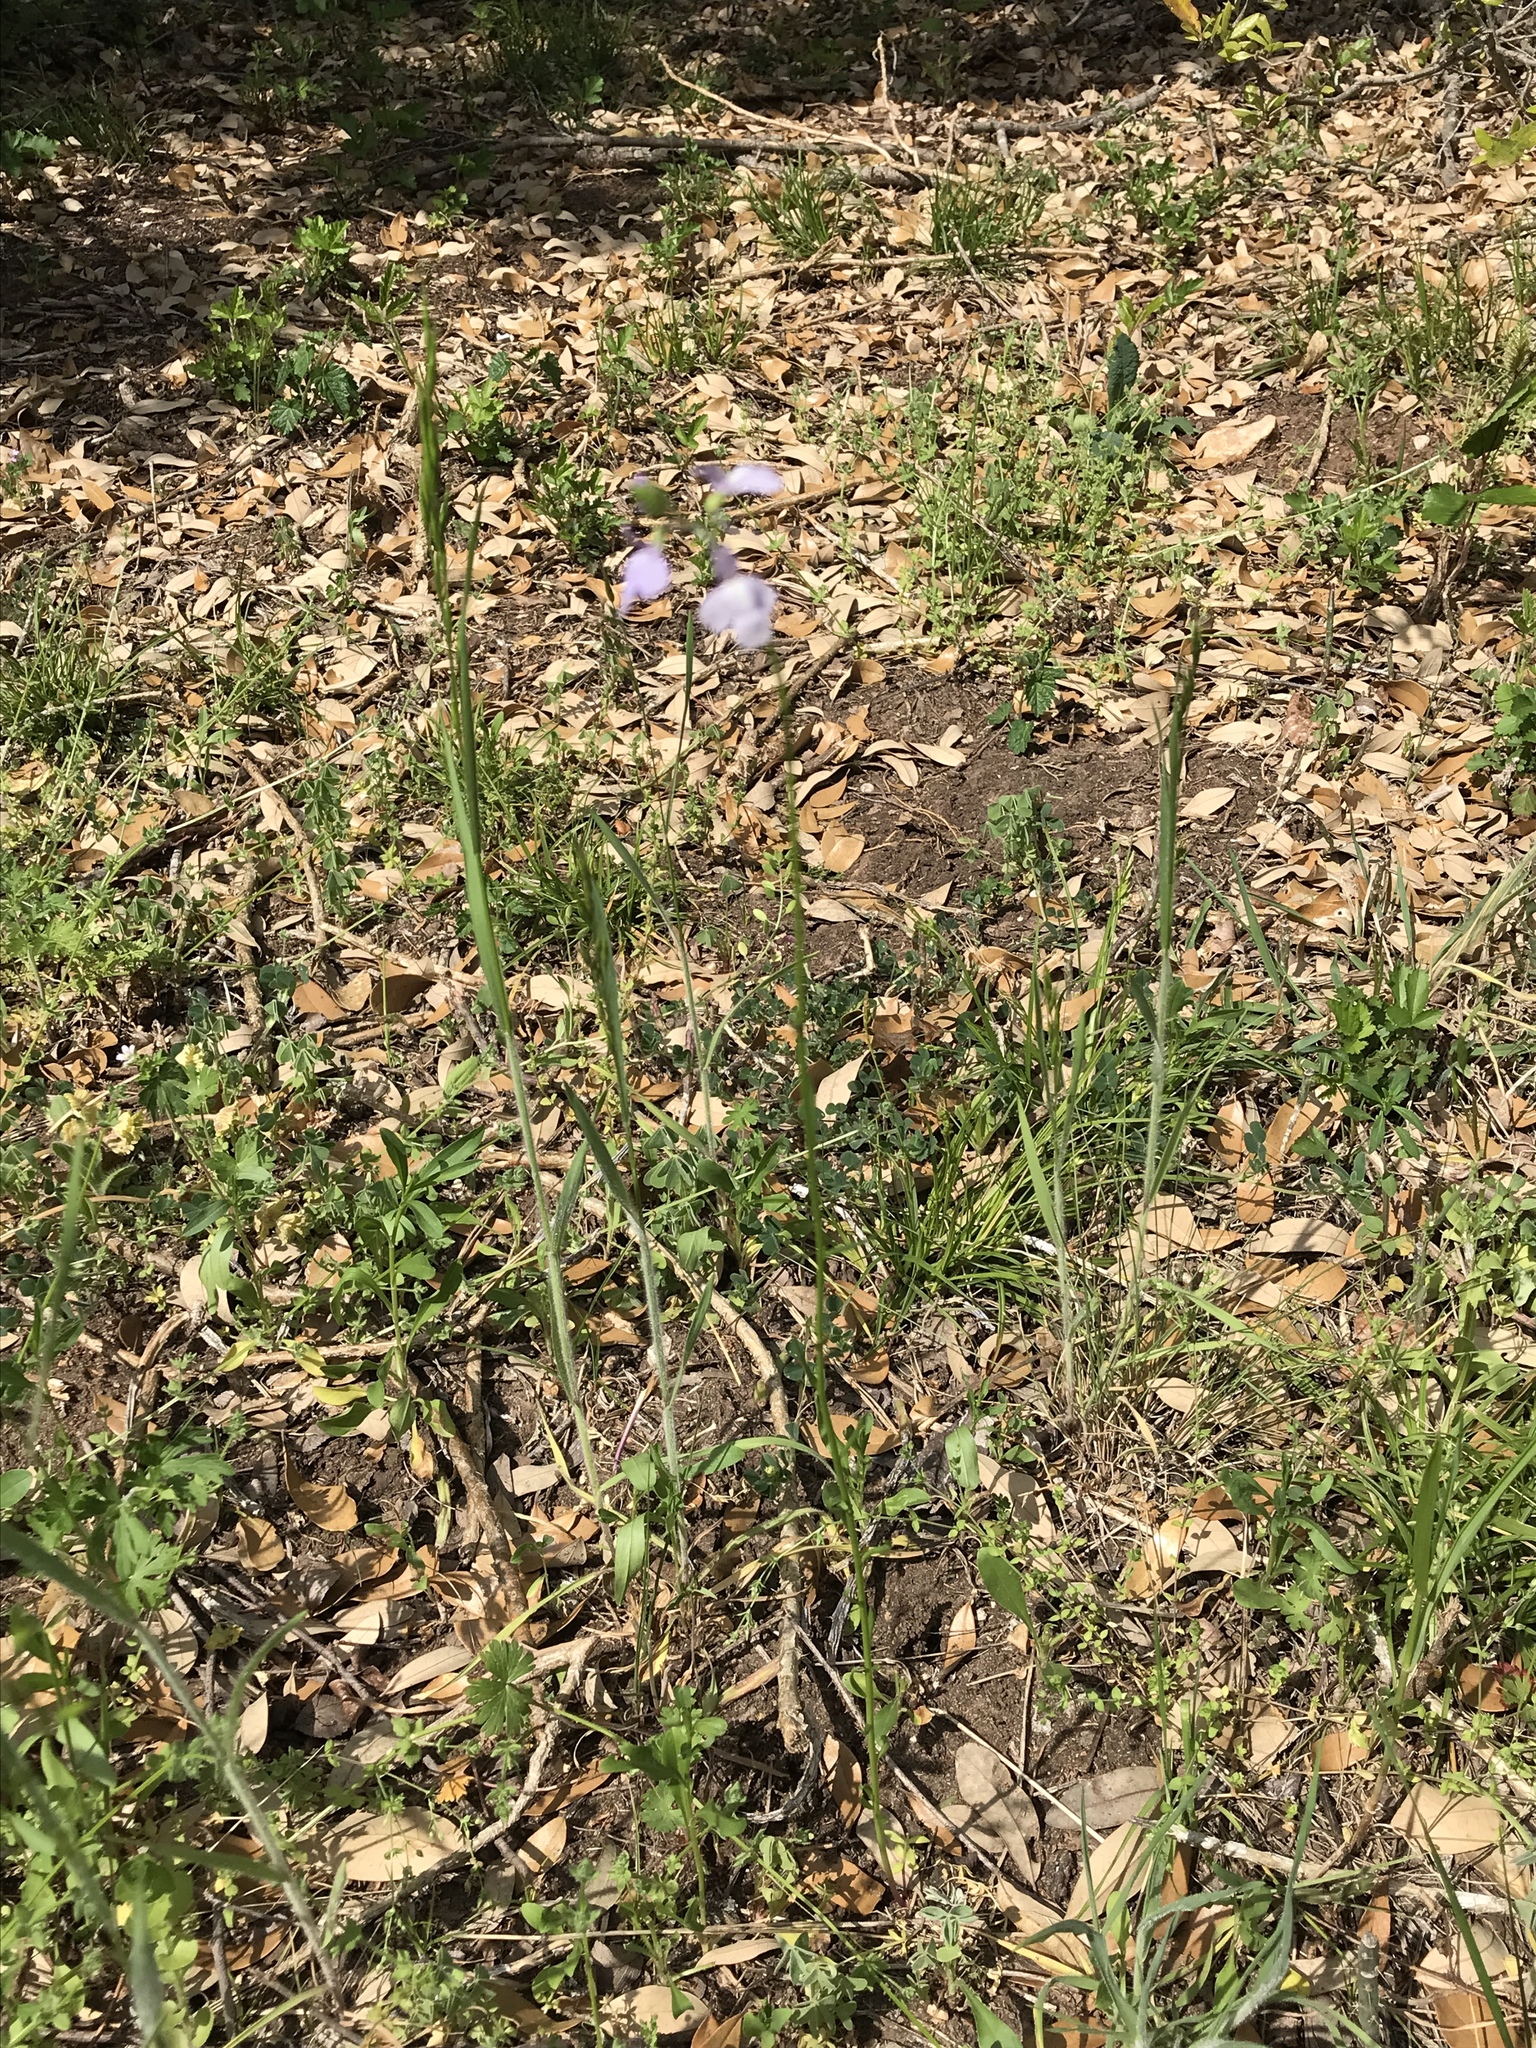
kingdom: Plantae
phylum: Tracheophyta
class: Magnoliopsida
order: Lamiales
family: Plantaginaceae
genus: Nuttallanthus
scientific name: Nuttallanthus texanus
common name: Texas toadflax
